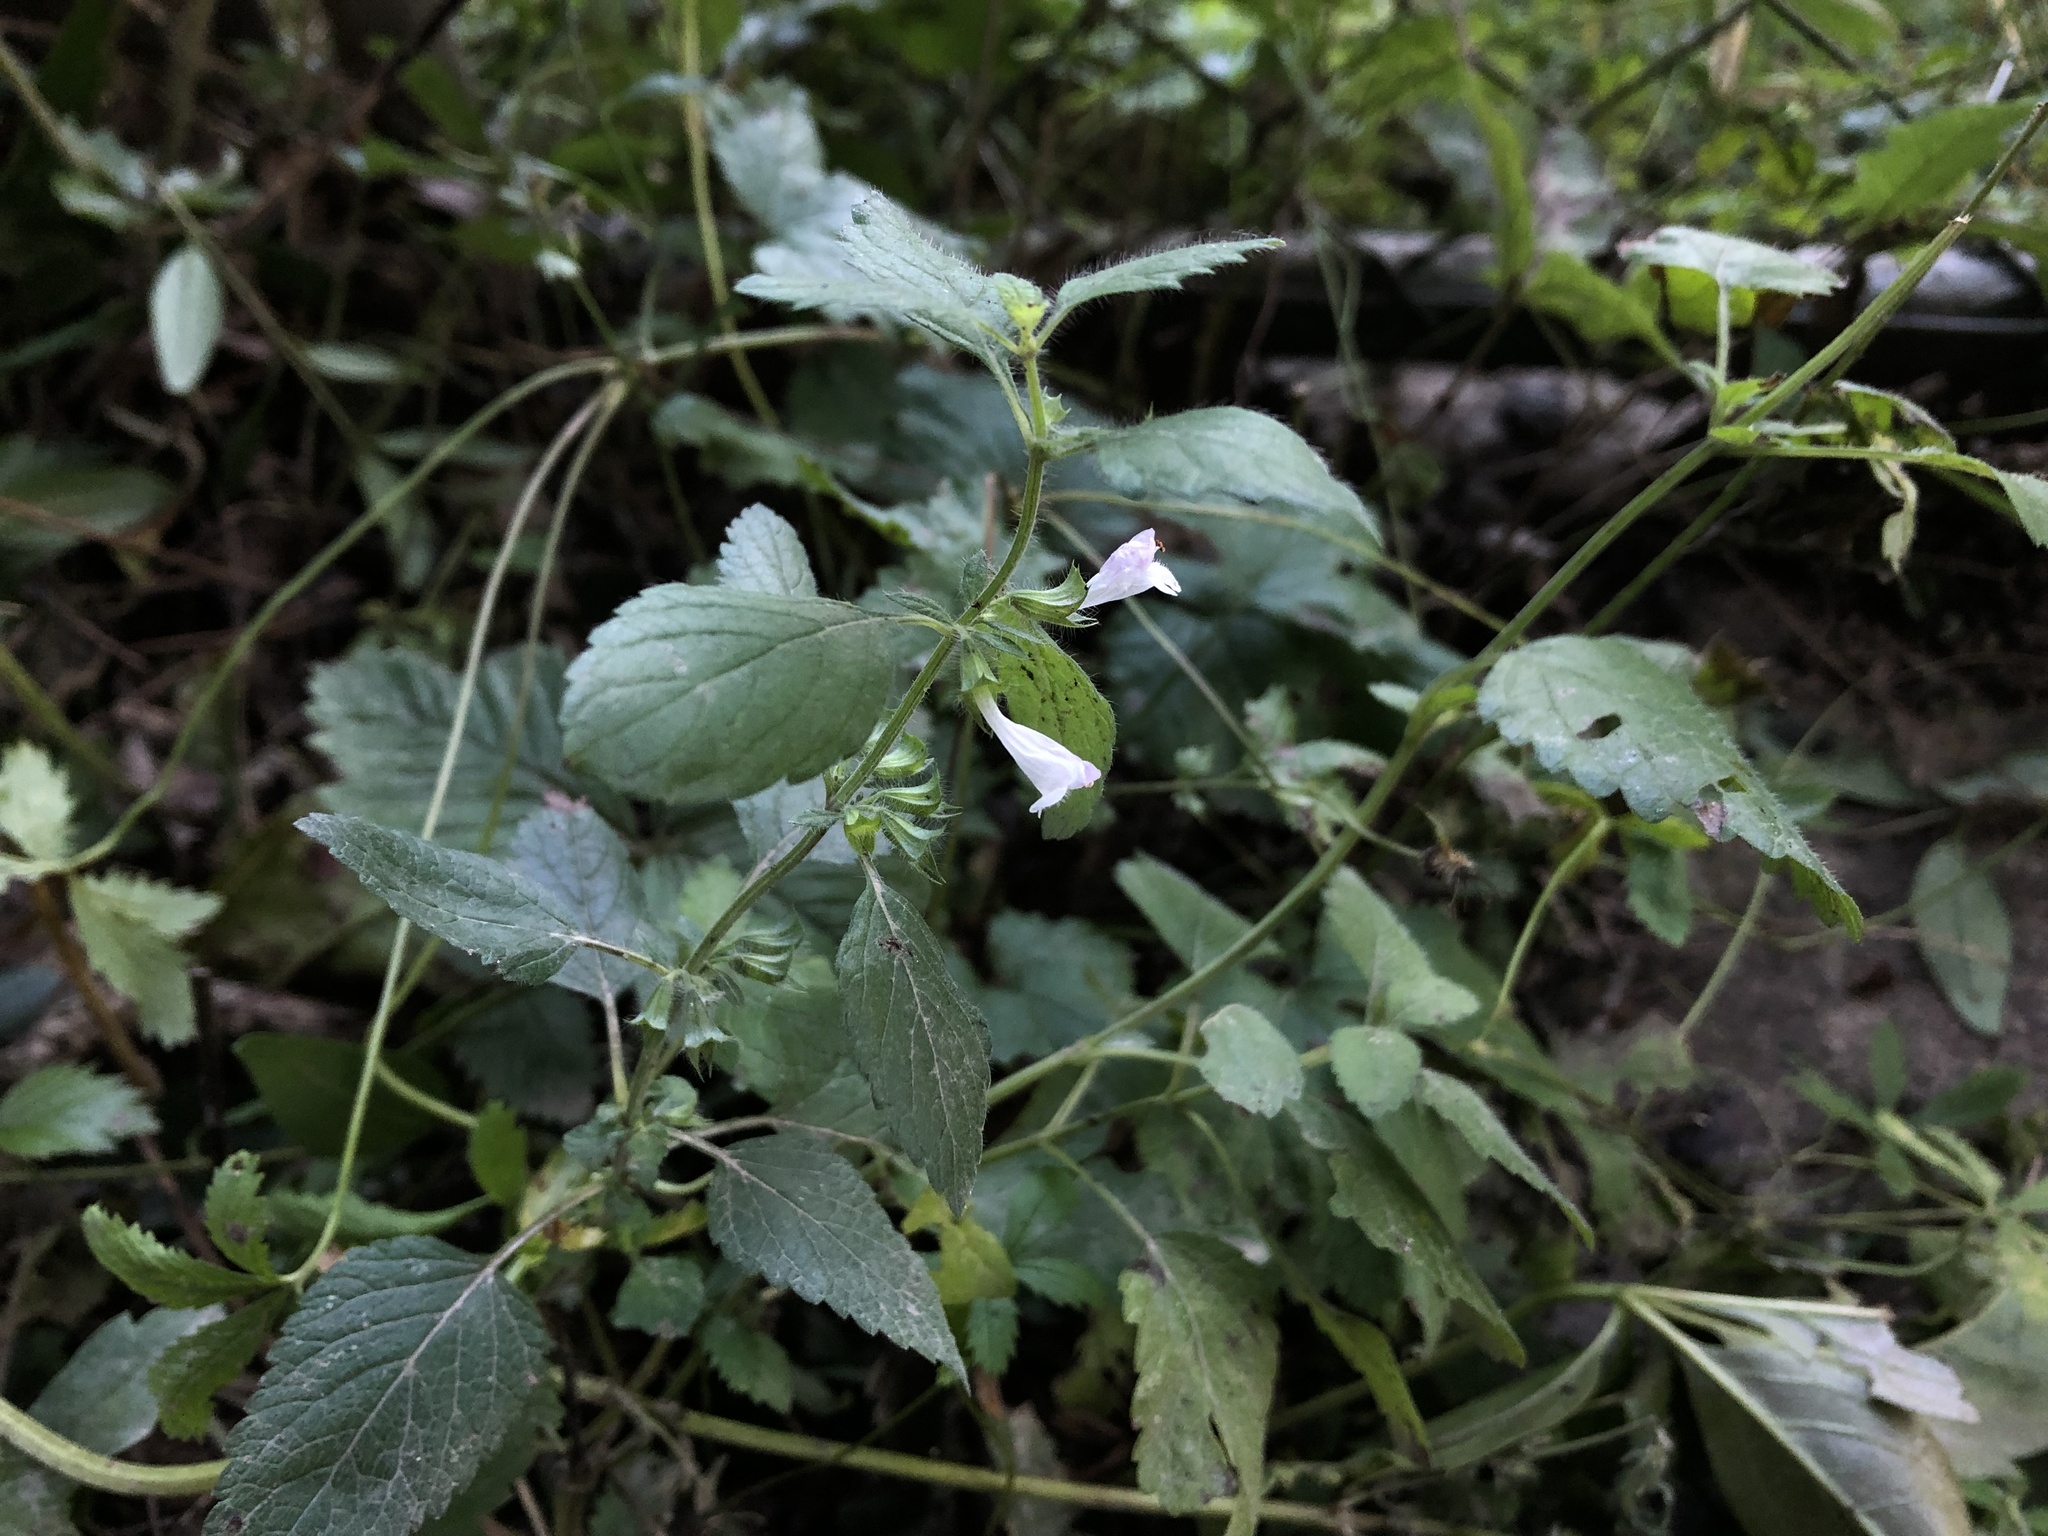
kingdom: Plantae
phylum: Tracheophyta
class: Magnoliopsida
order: Lamiales
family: Lamiaceae
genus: Melissa
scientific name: Melissa officinalis
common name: Balm
